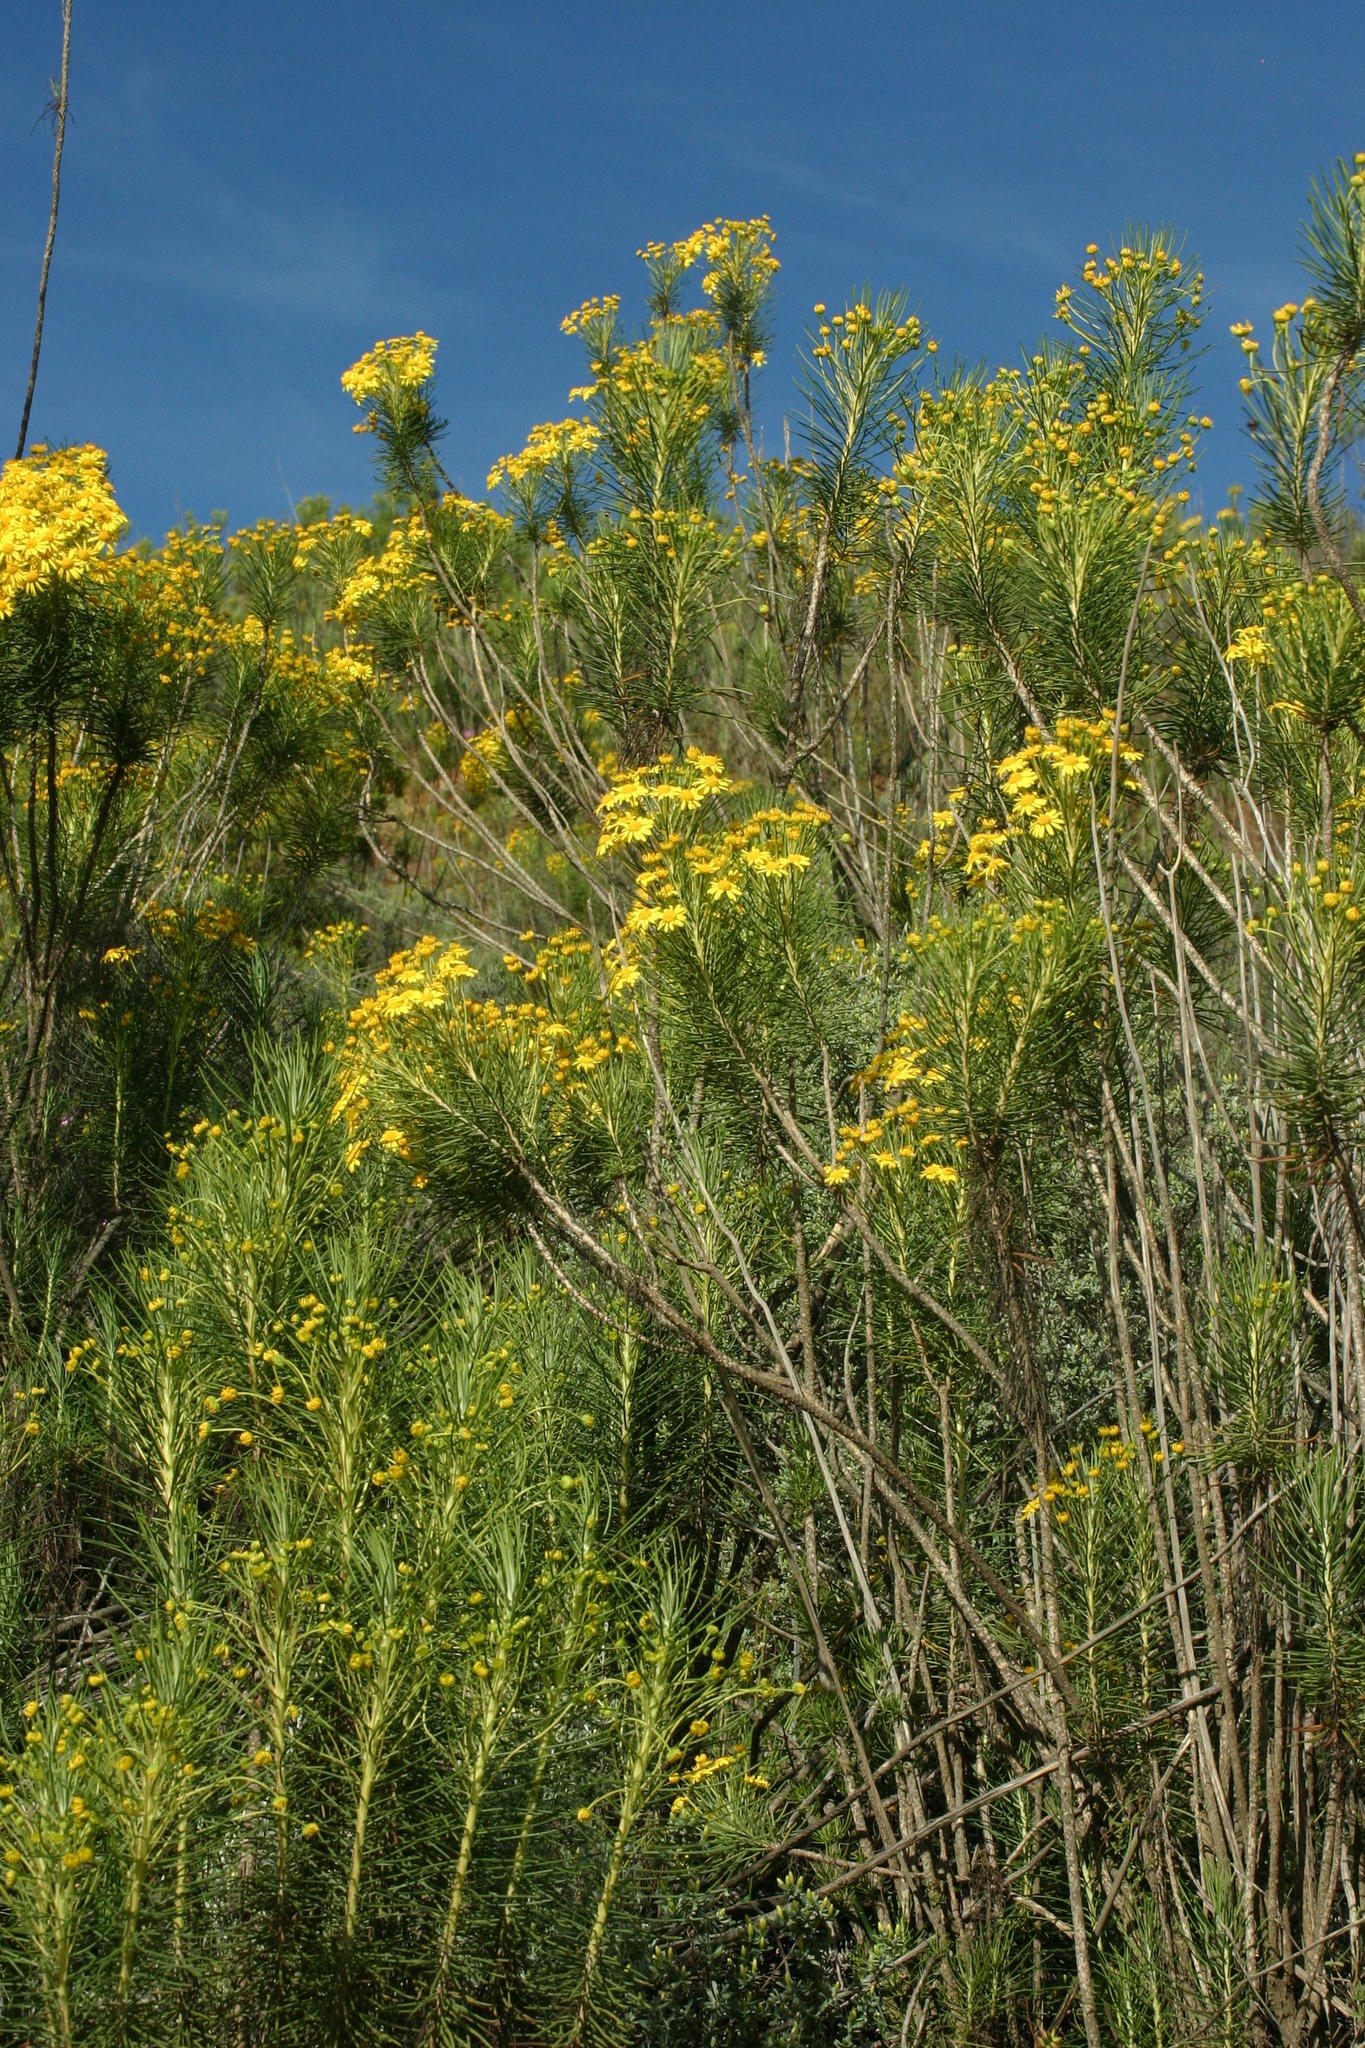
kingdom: Plantae
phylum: Tracheophyta
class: Magnoliopsida
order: Asterales
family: Asteraceae
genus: Euryops
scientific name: Euryops tenuissimus
